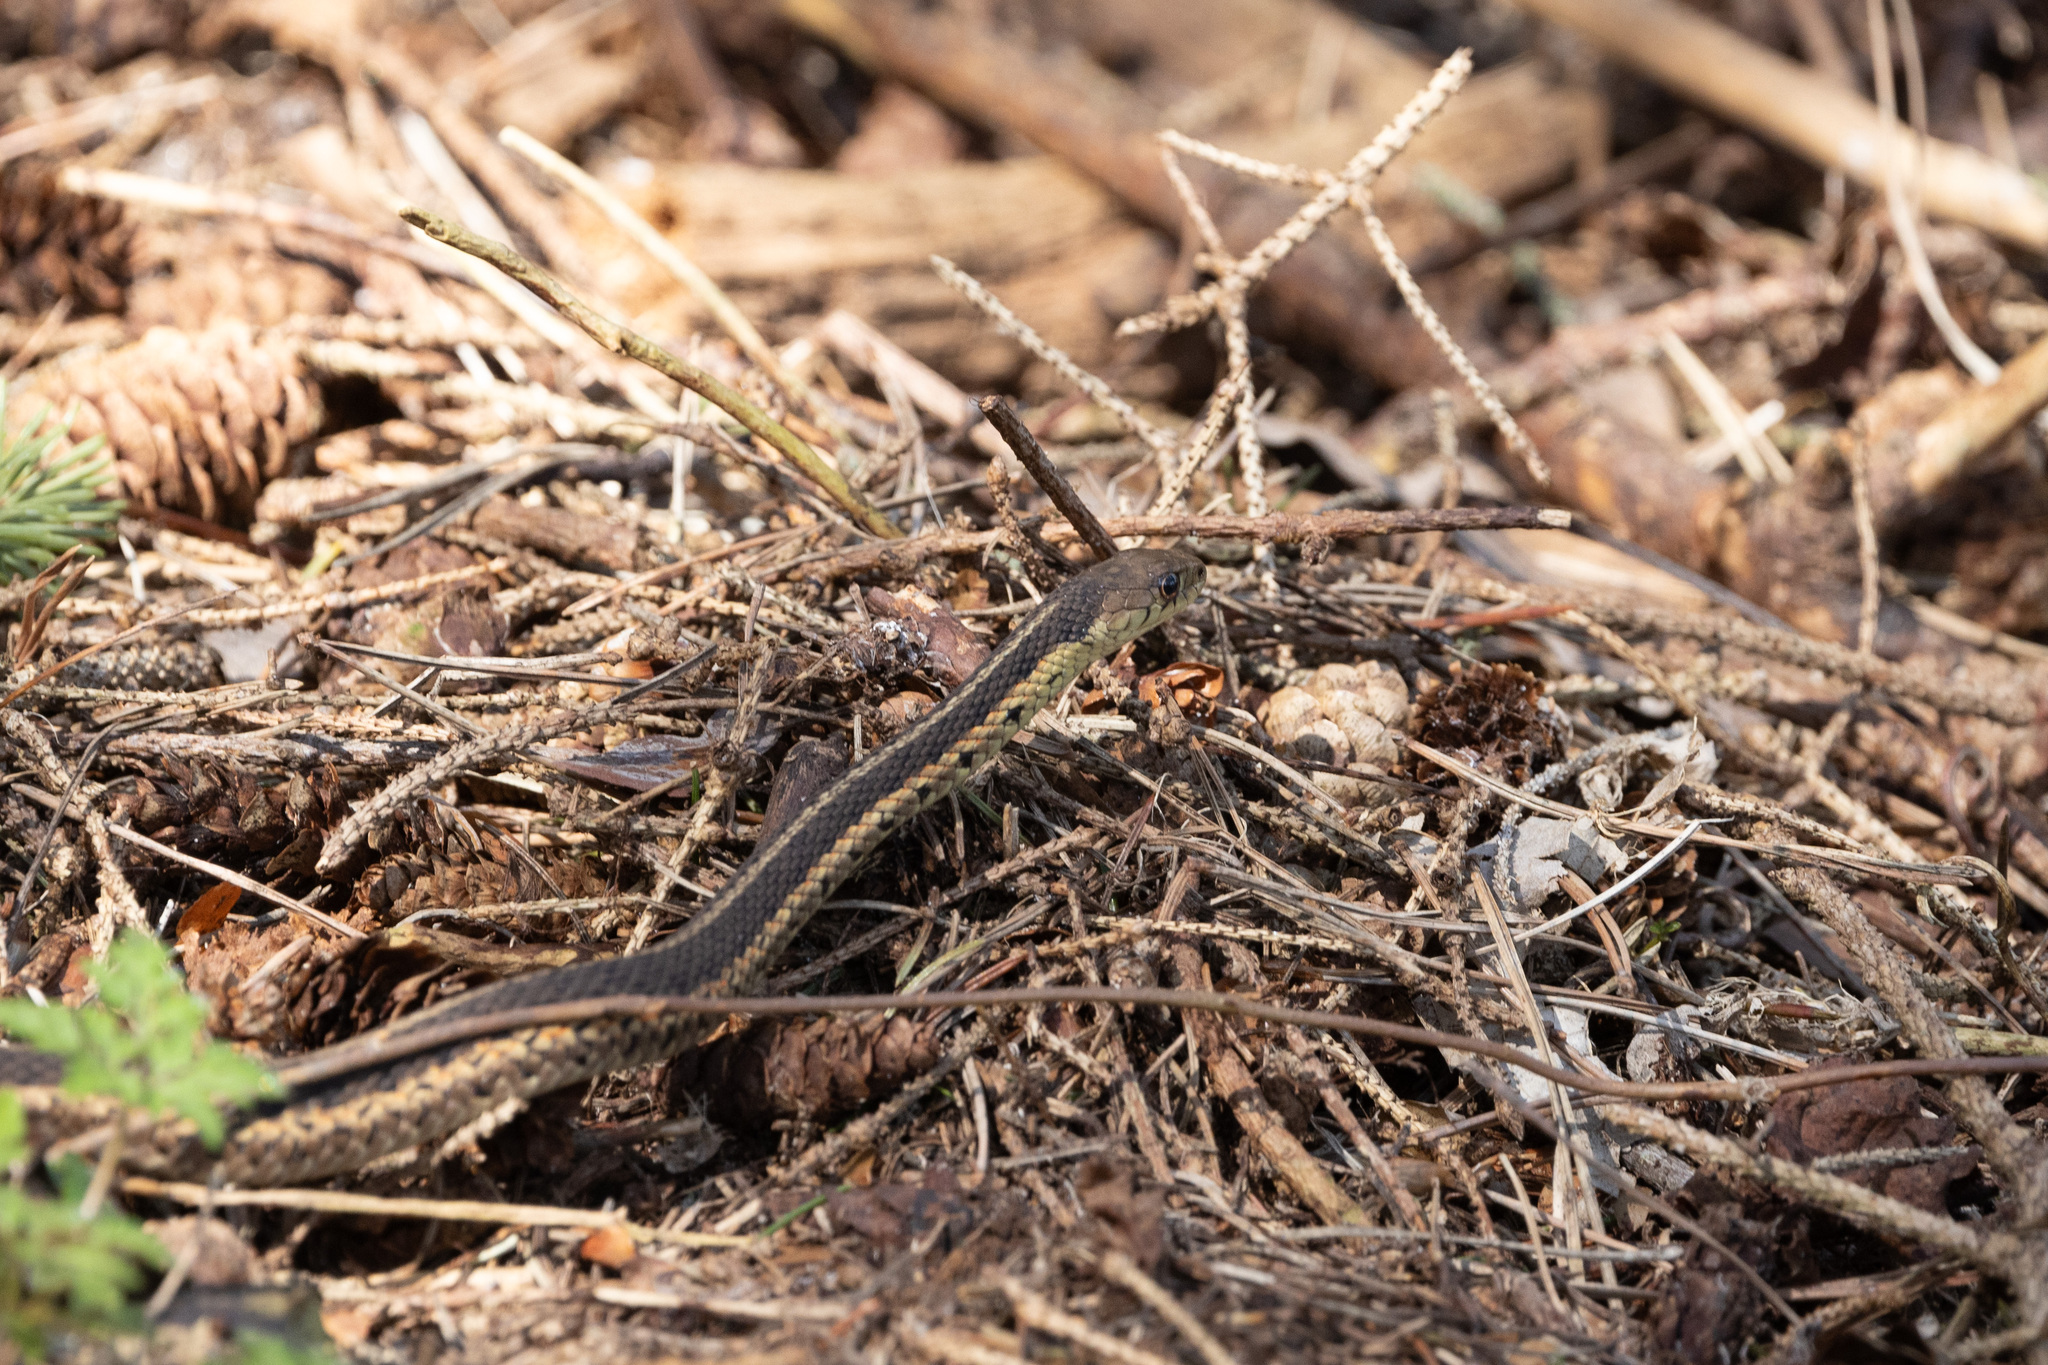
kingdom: Animalia
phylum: Chordata
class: Squamata
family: Colubridae
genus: Thamnophis
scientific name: Thamnophis sirtalis
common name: Common garter snake
